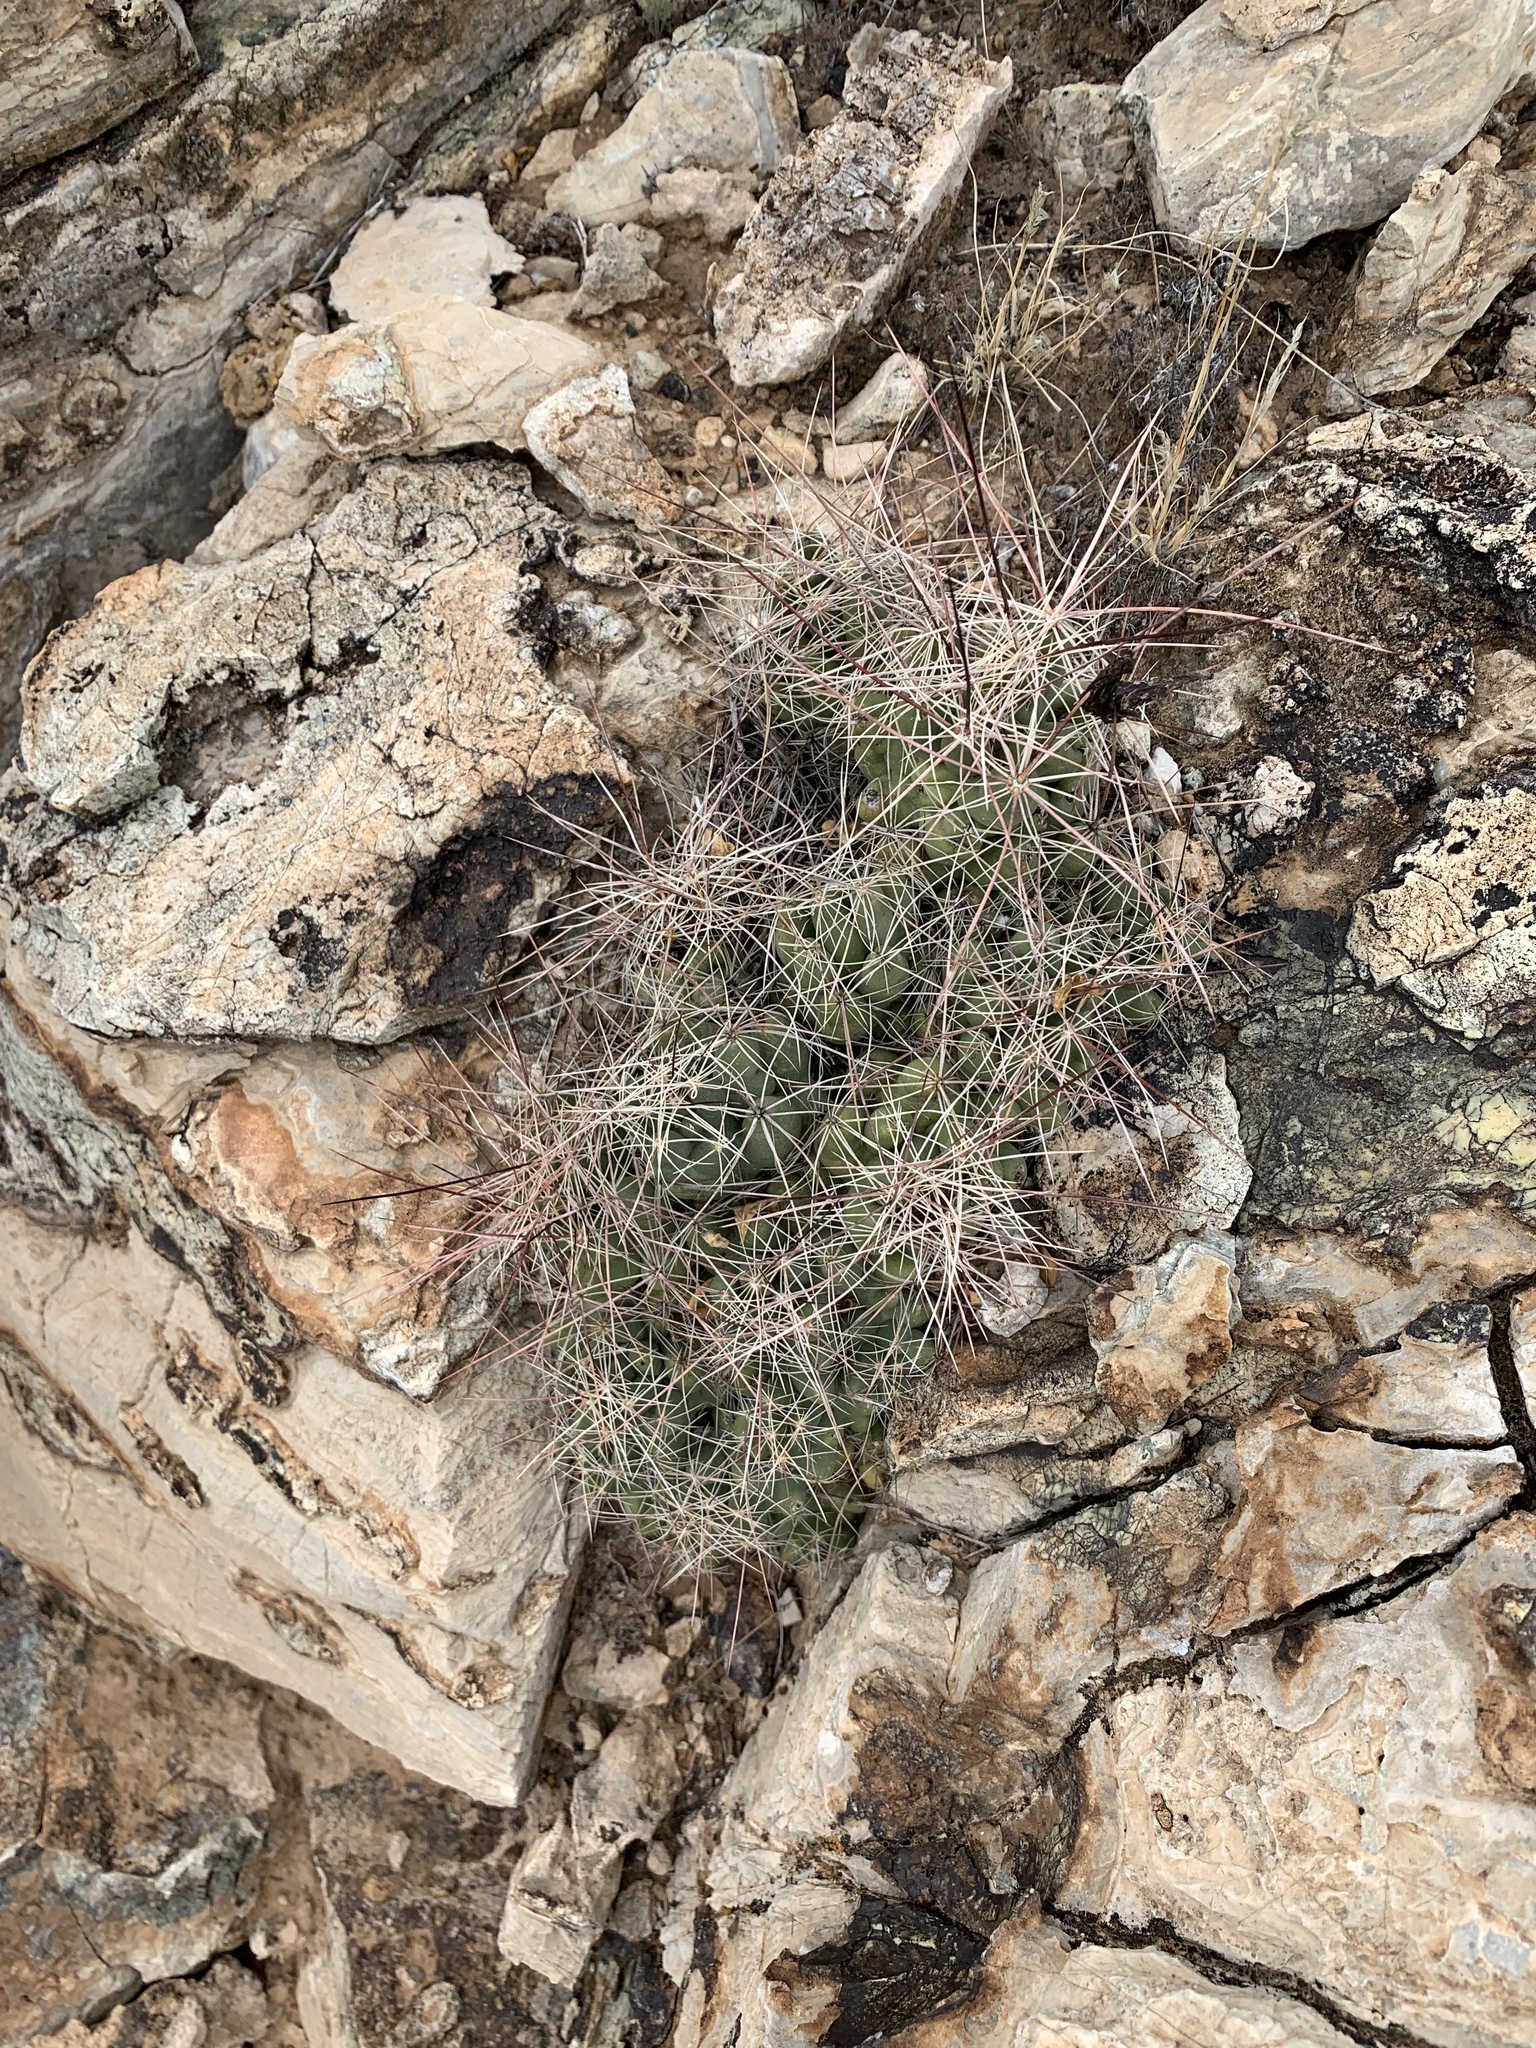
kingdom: Plantae
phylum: Tracheophyta
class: Magnoliopsida
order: Caryophyllales
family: Cactaceae
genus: Coryphantha
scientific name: Coryphantha macromeris
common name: Nipple beehive cactus
